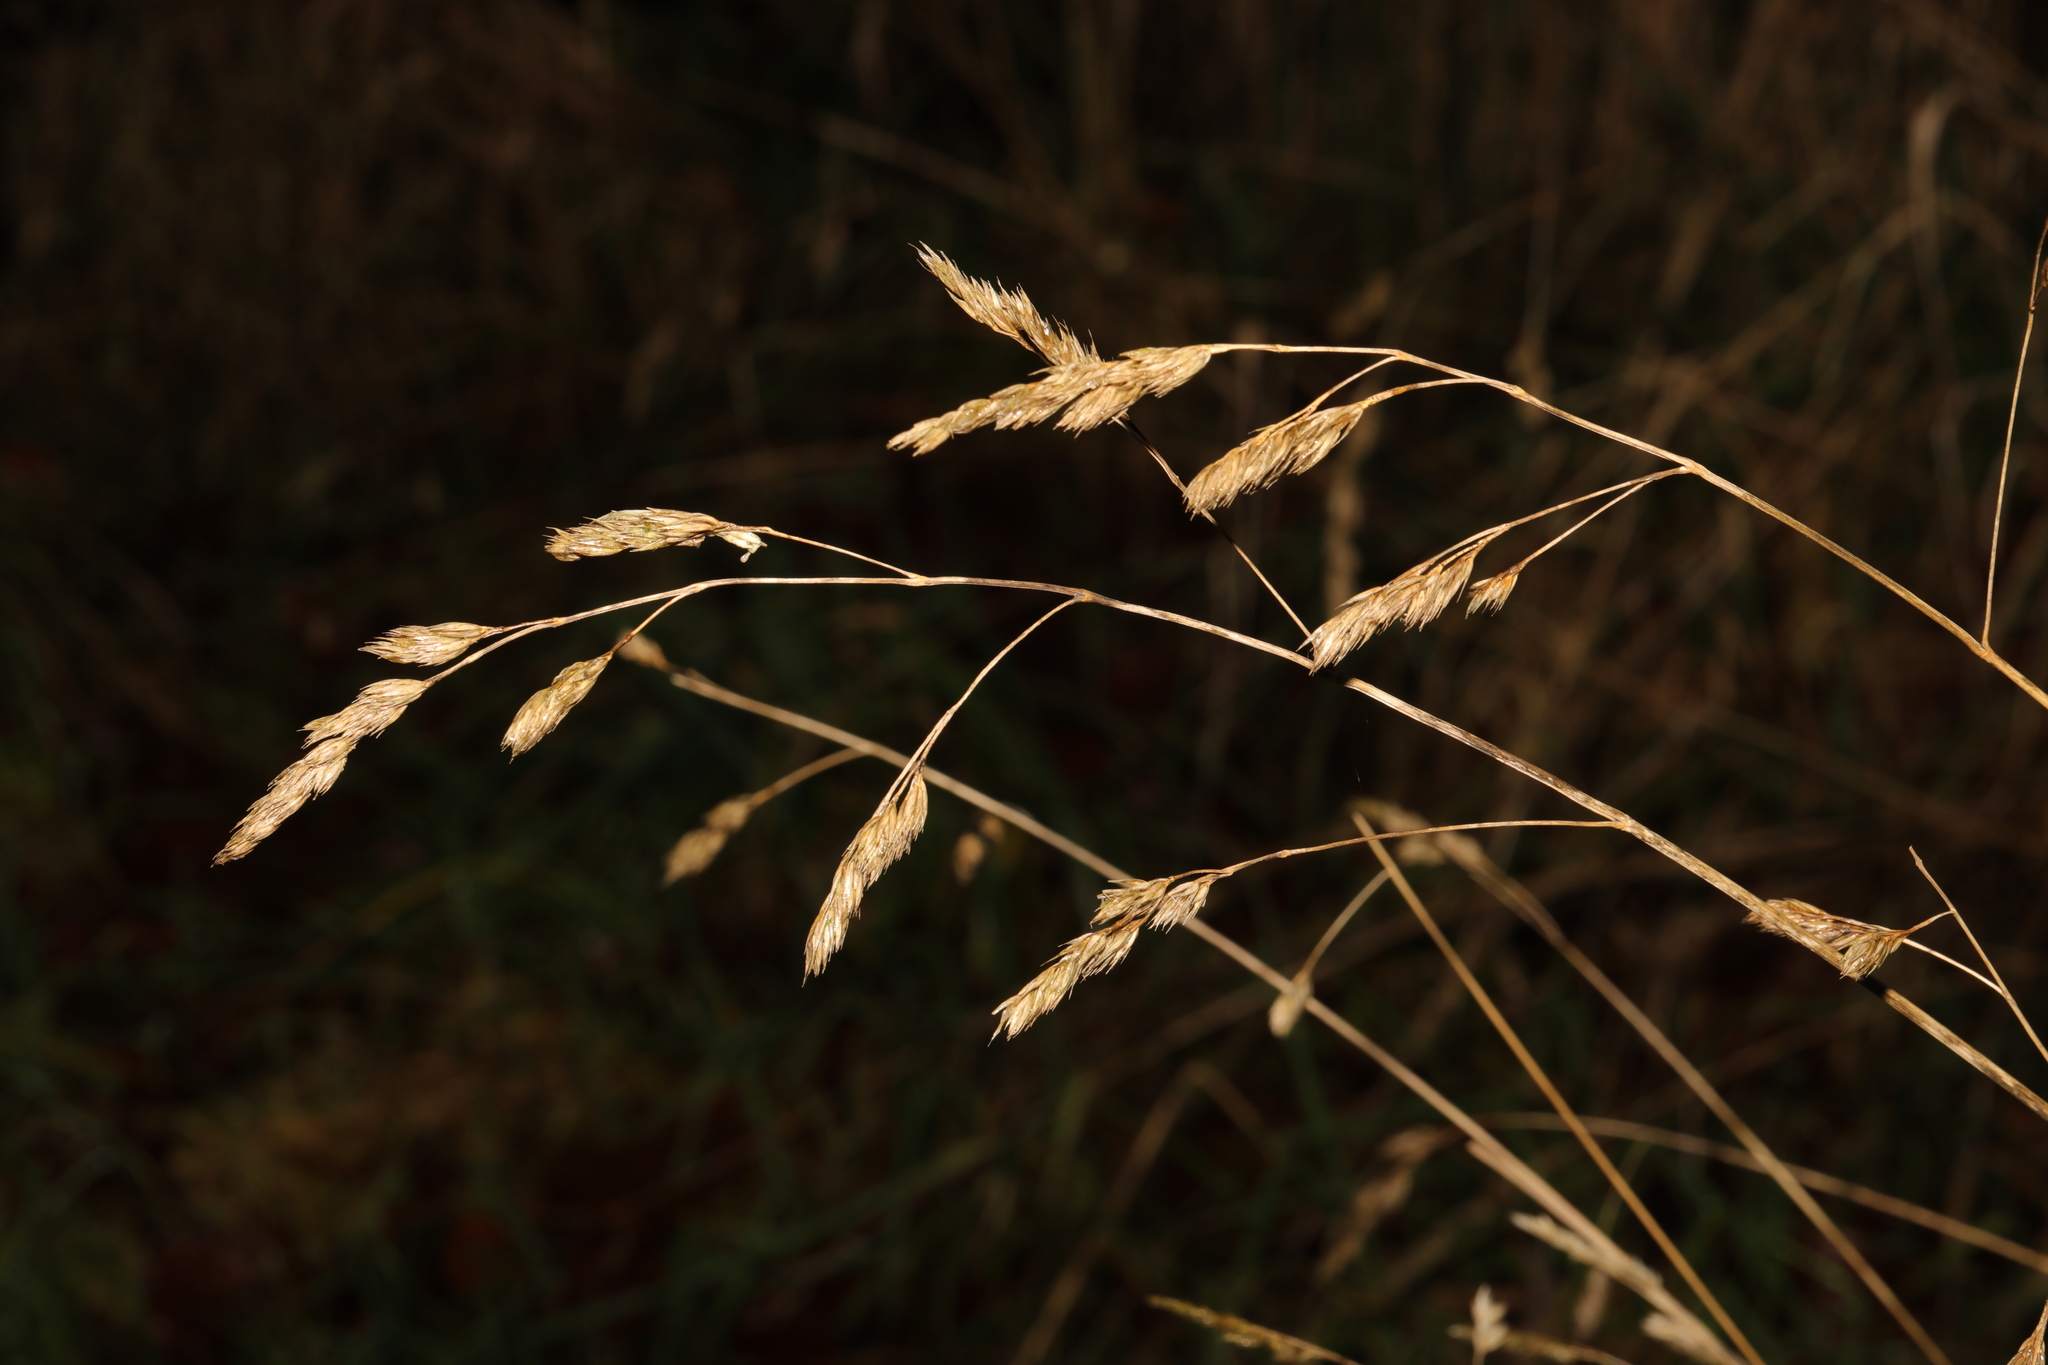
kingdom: Plantae
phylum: Tracheophyta
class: Liliopsida
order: Poales
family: Poaceae
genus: Dactylis
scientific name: Dactylis glomerata
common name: Orchardgrass
